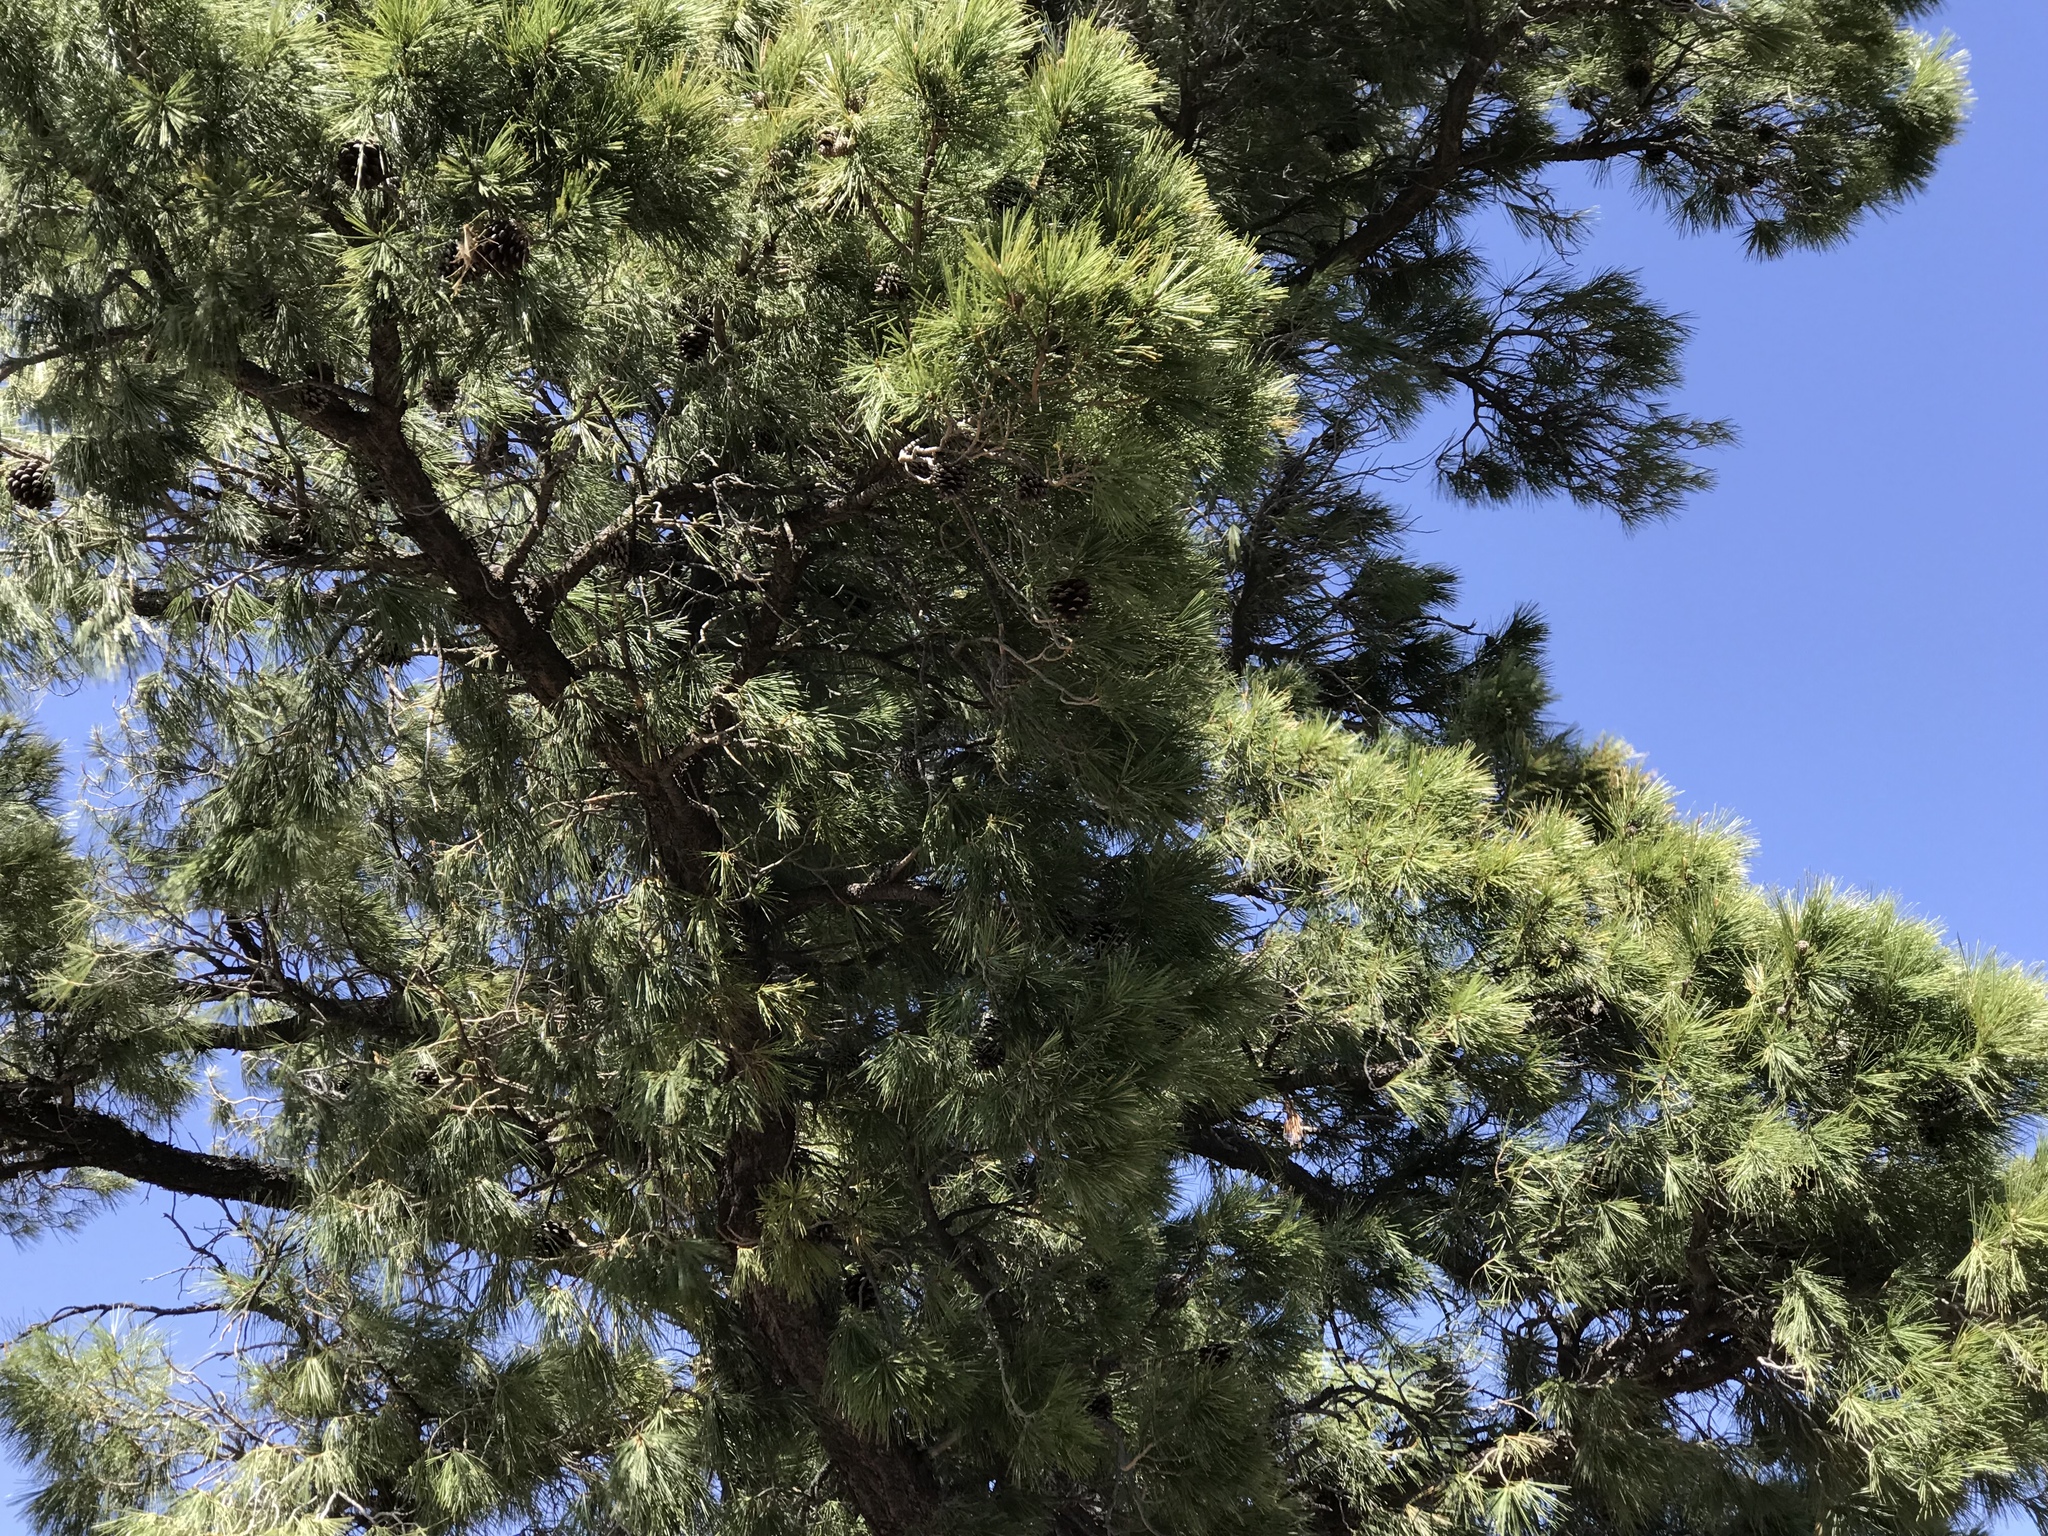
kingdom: Plantae
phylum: Tracheophyta
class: Pinopsida
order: Pinales
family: Pinaceae
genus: Pinus
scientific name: Pinus leiophylla
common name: Chihuahua pine
